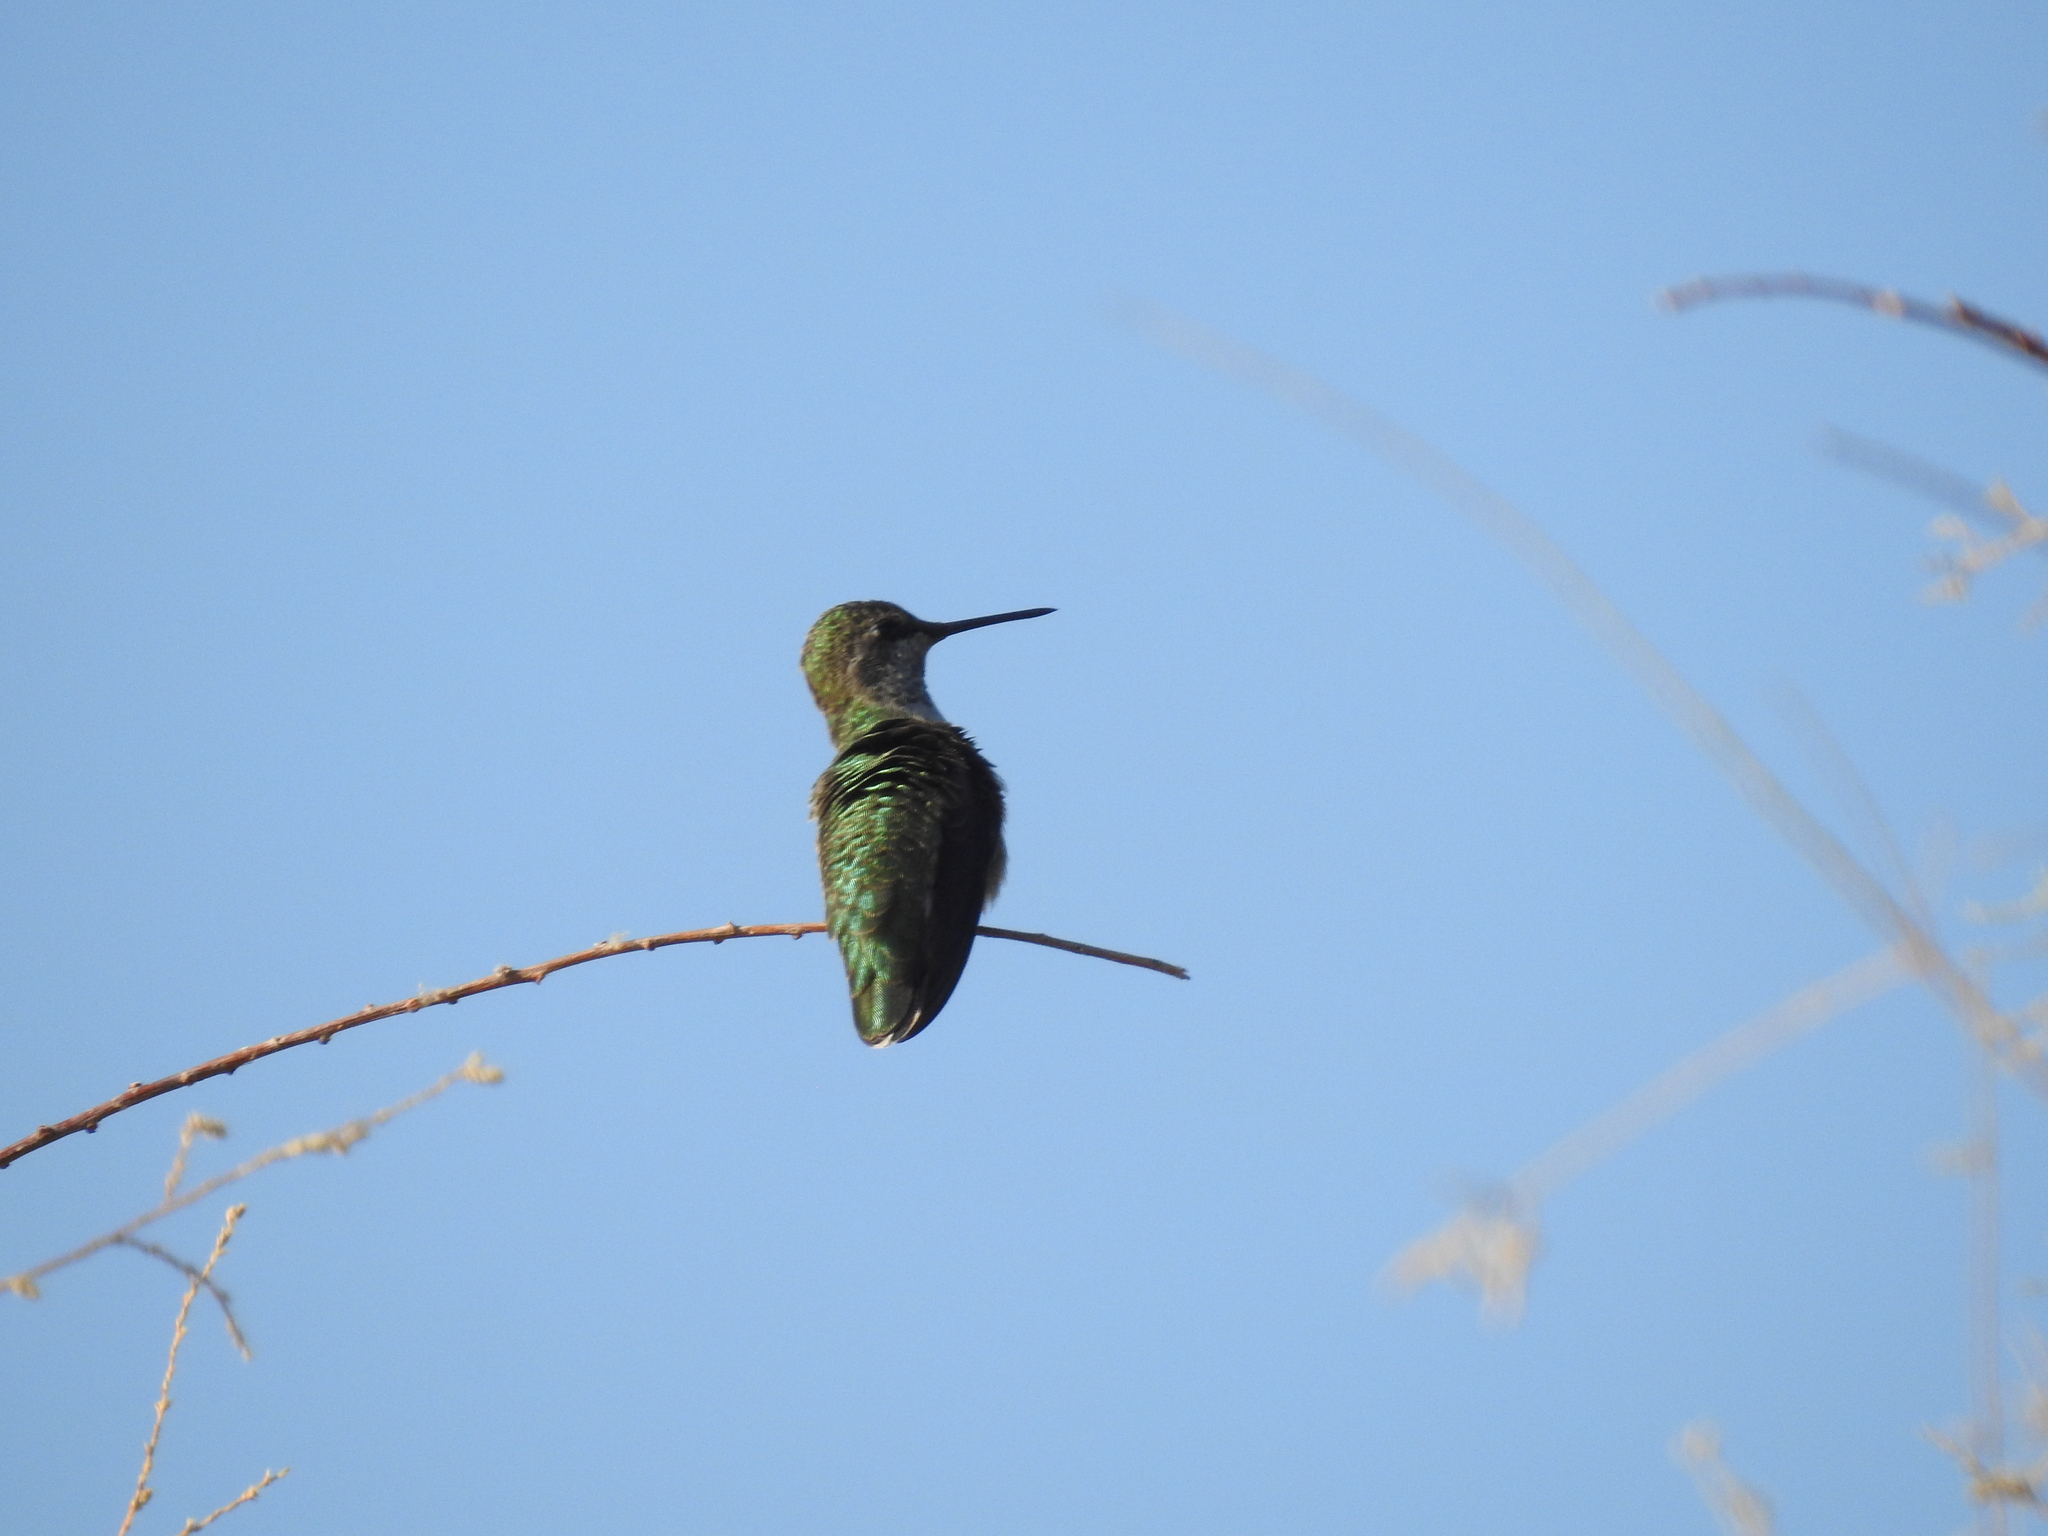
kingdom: Animalia
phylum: Chordata
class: Aves
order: Apodiformes
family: Trochilidae
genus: Calypte
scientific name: Calypte anna
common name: Anna's hummingbird
